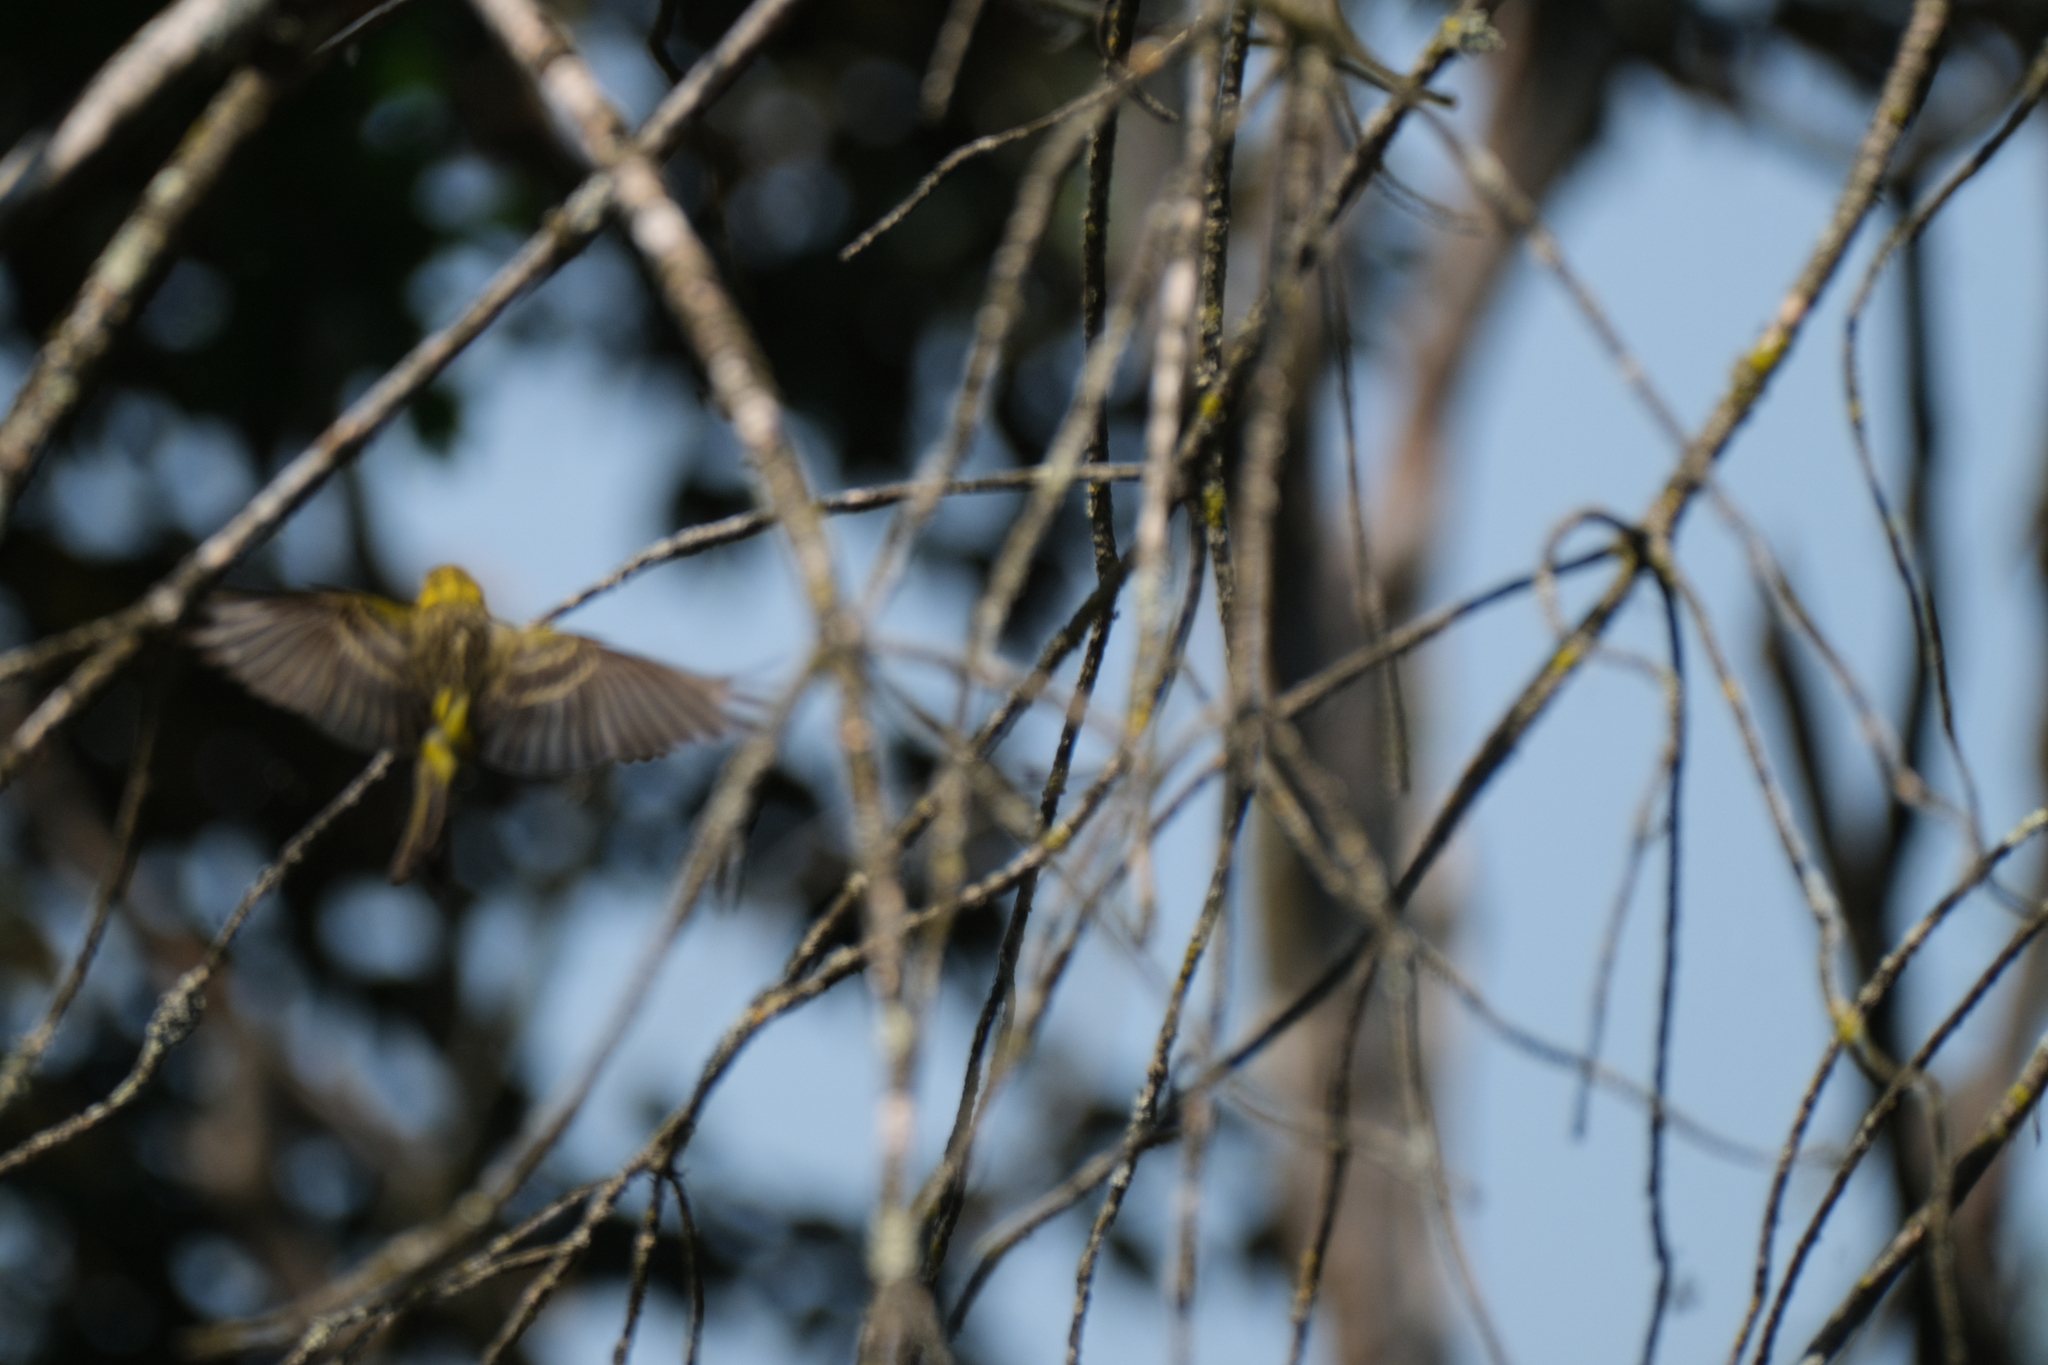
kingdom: Animalia
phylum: Chordata
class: Aves
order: Passeriformes
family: Fringillidae
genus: Serinus
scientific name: Serinus serinus
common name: European serin
